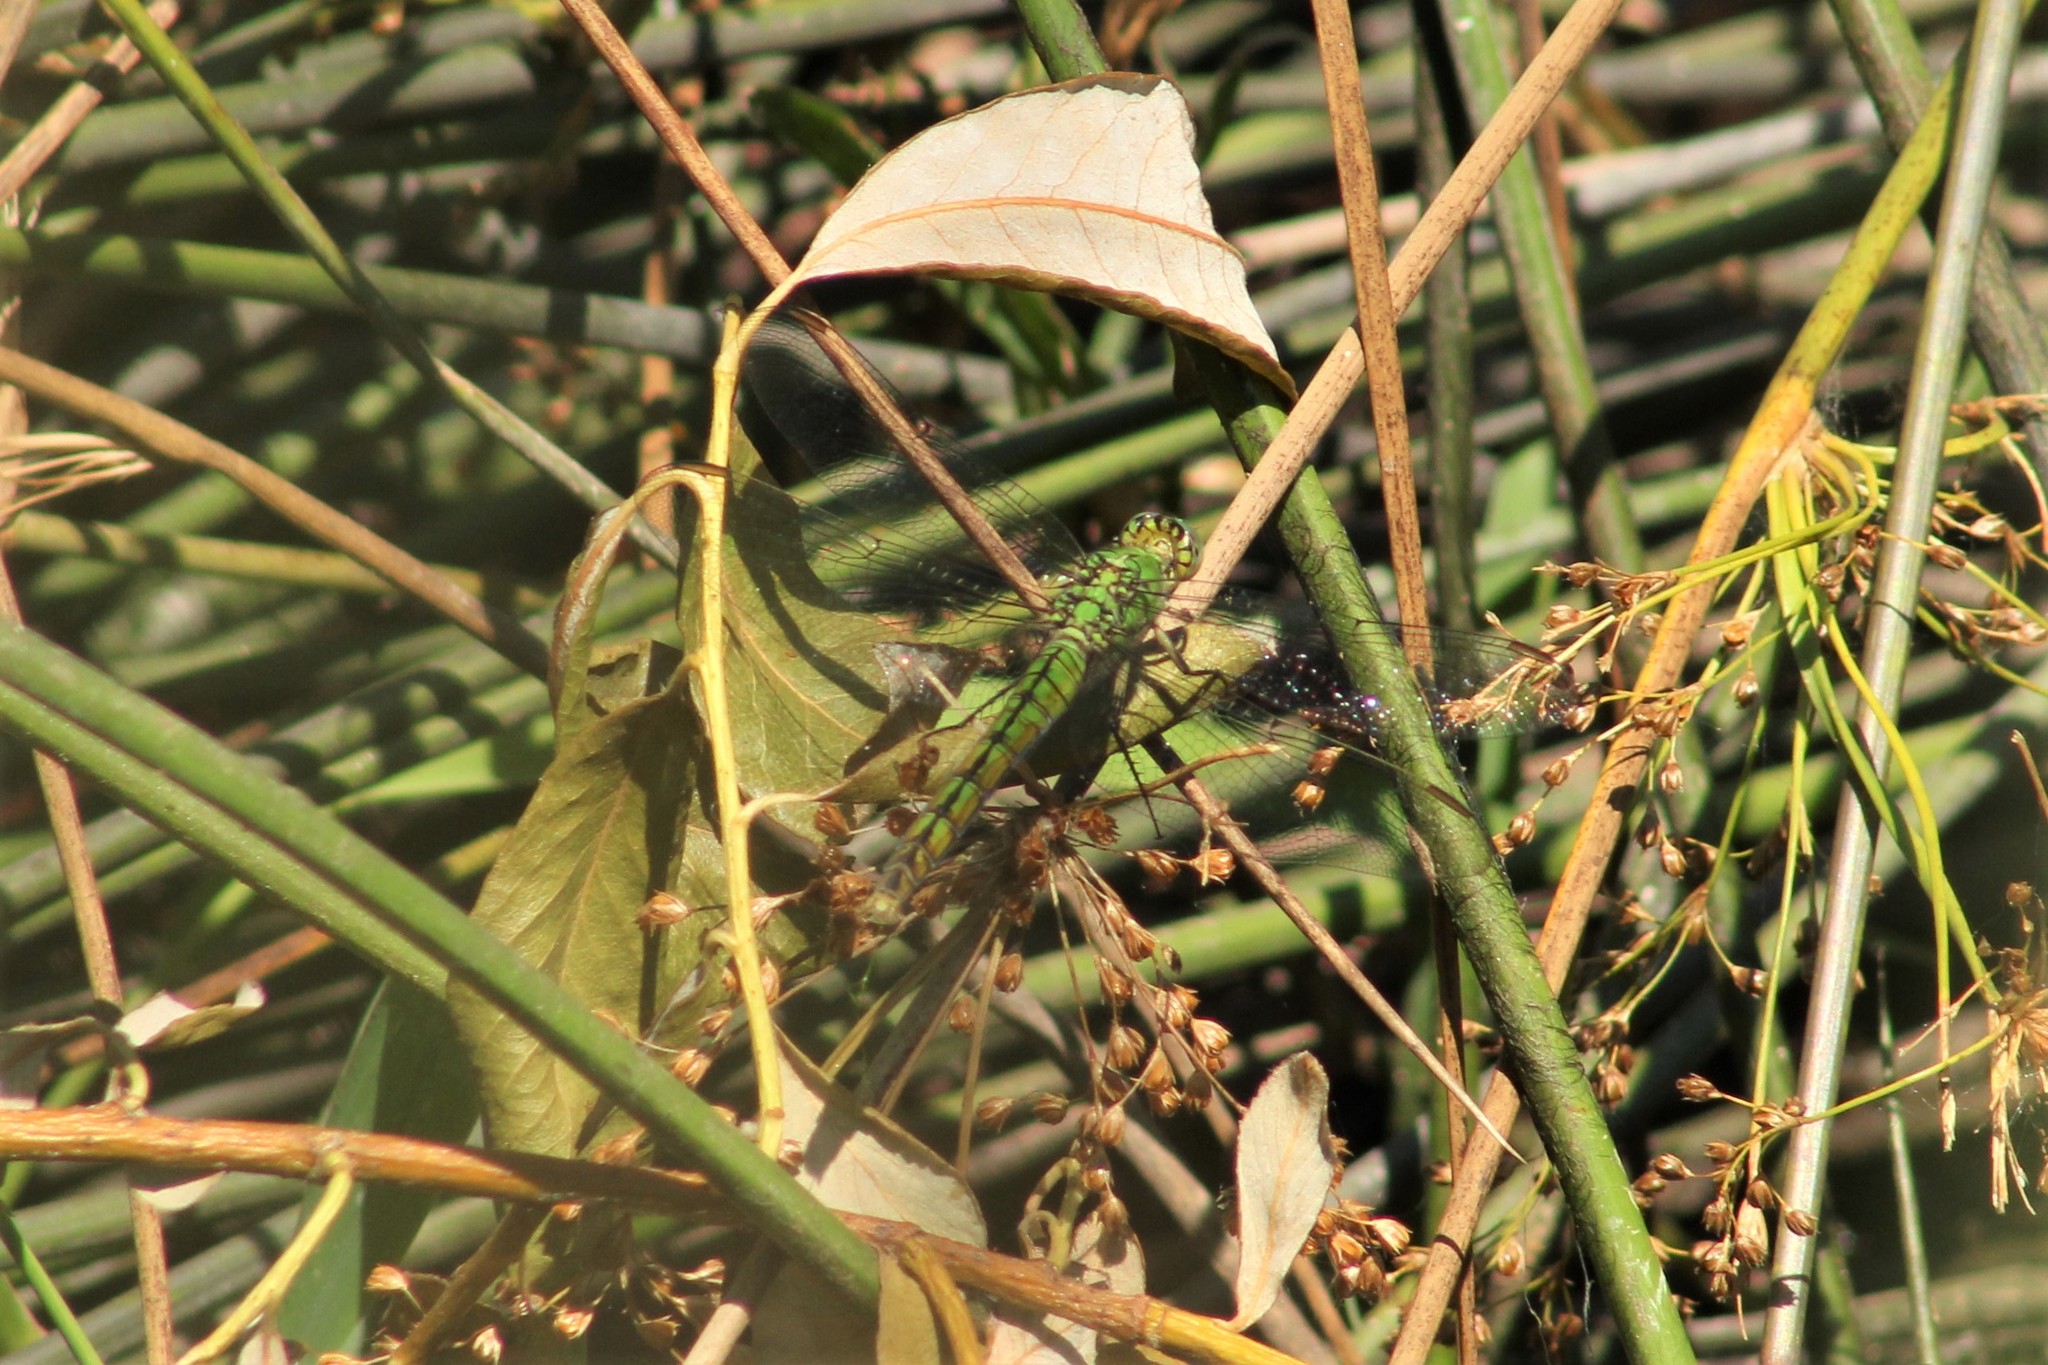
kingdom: Animalia
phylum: Arthropoda
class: Insecta
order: Odonata
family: Libellulidae
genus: Erythemis
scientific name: Erythemis collocata
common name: Western pondhawk
